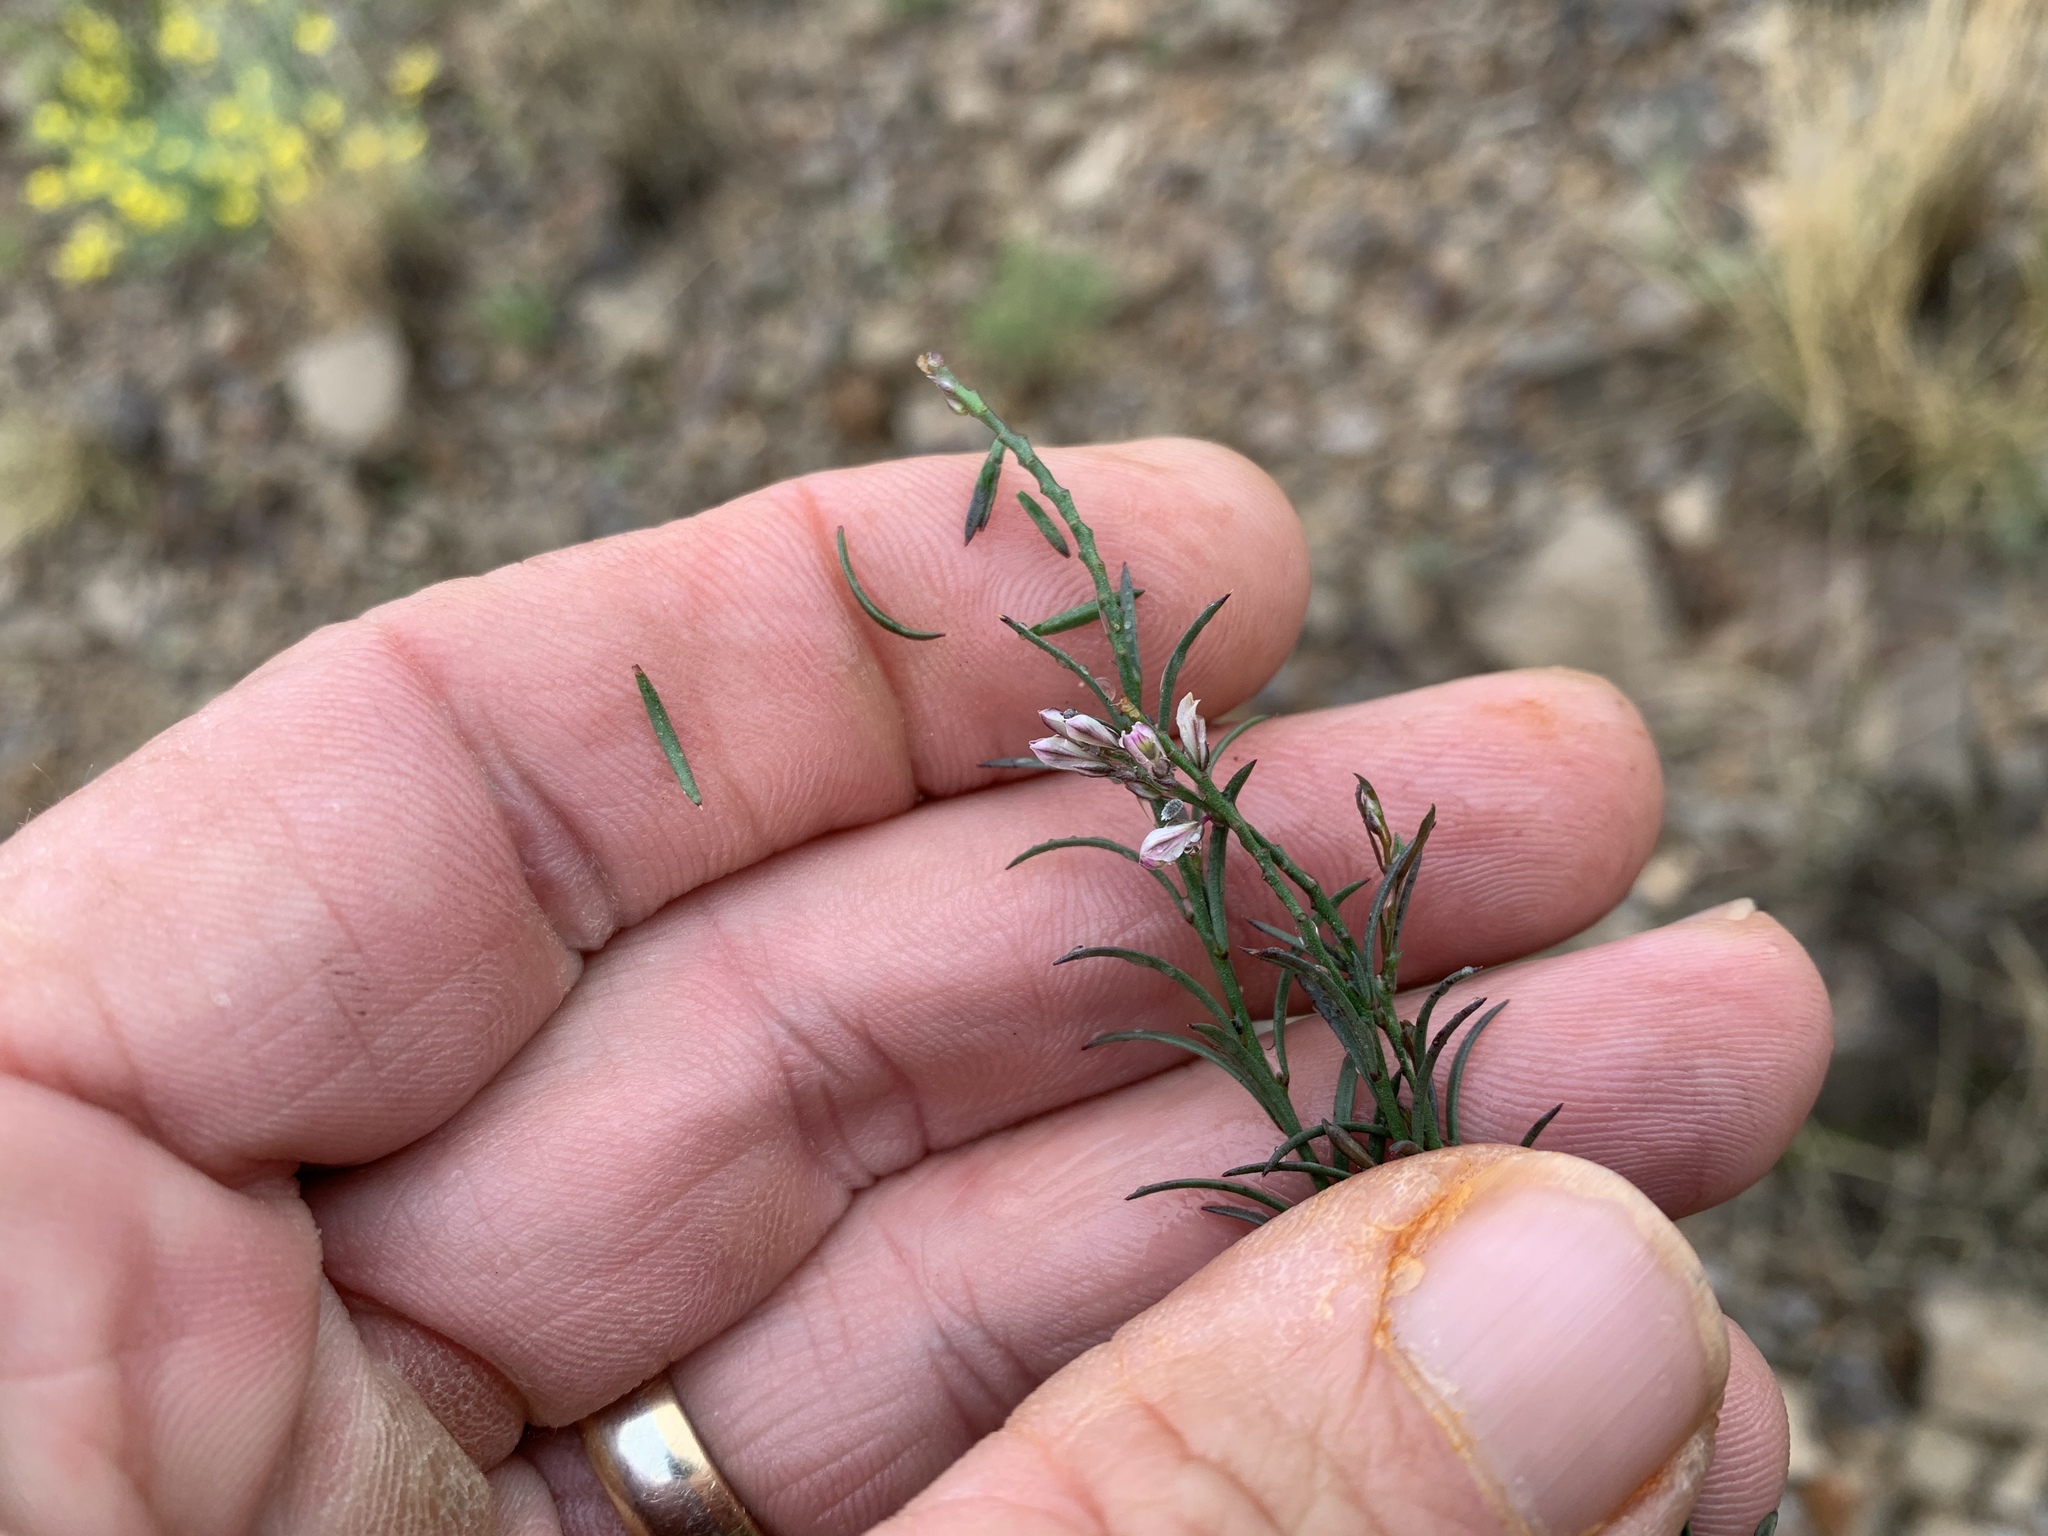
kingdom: Plantae
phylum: Tracheophyta
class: Magnoliopsida
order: Fabales
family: Polygalaceae
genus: Polygala
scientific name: Polygala scoparioides
